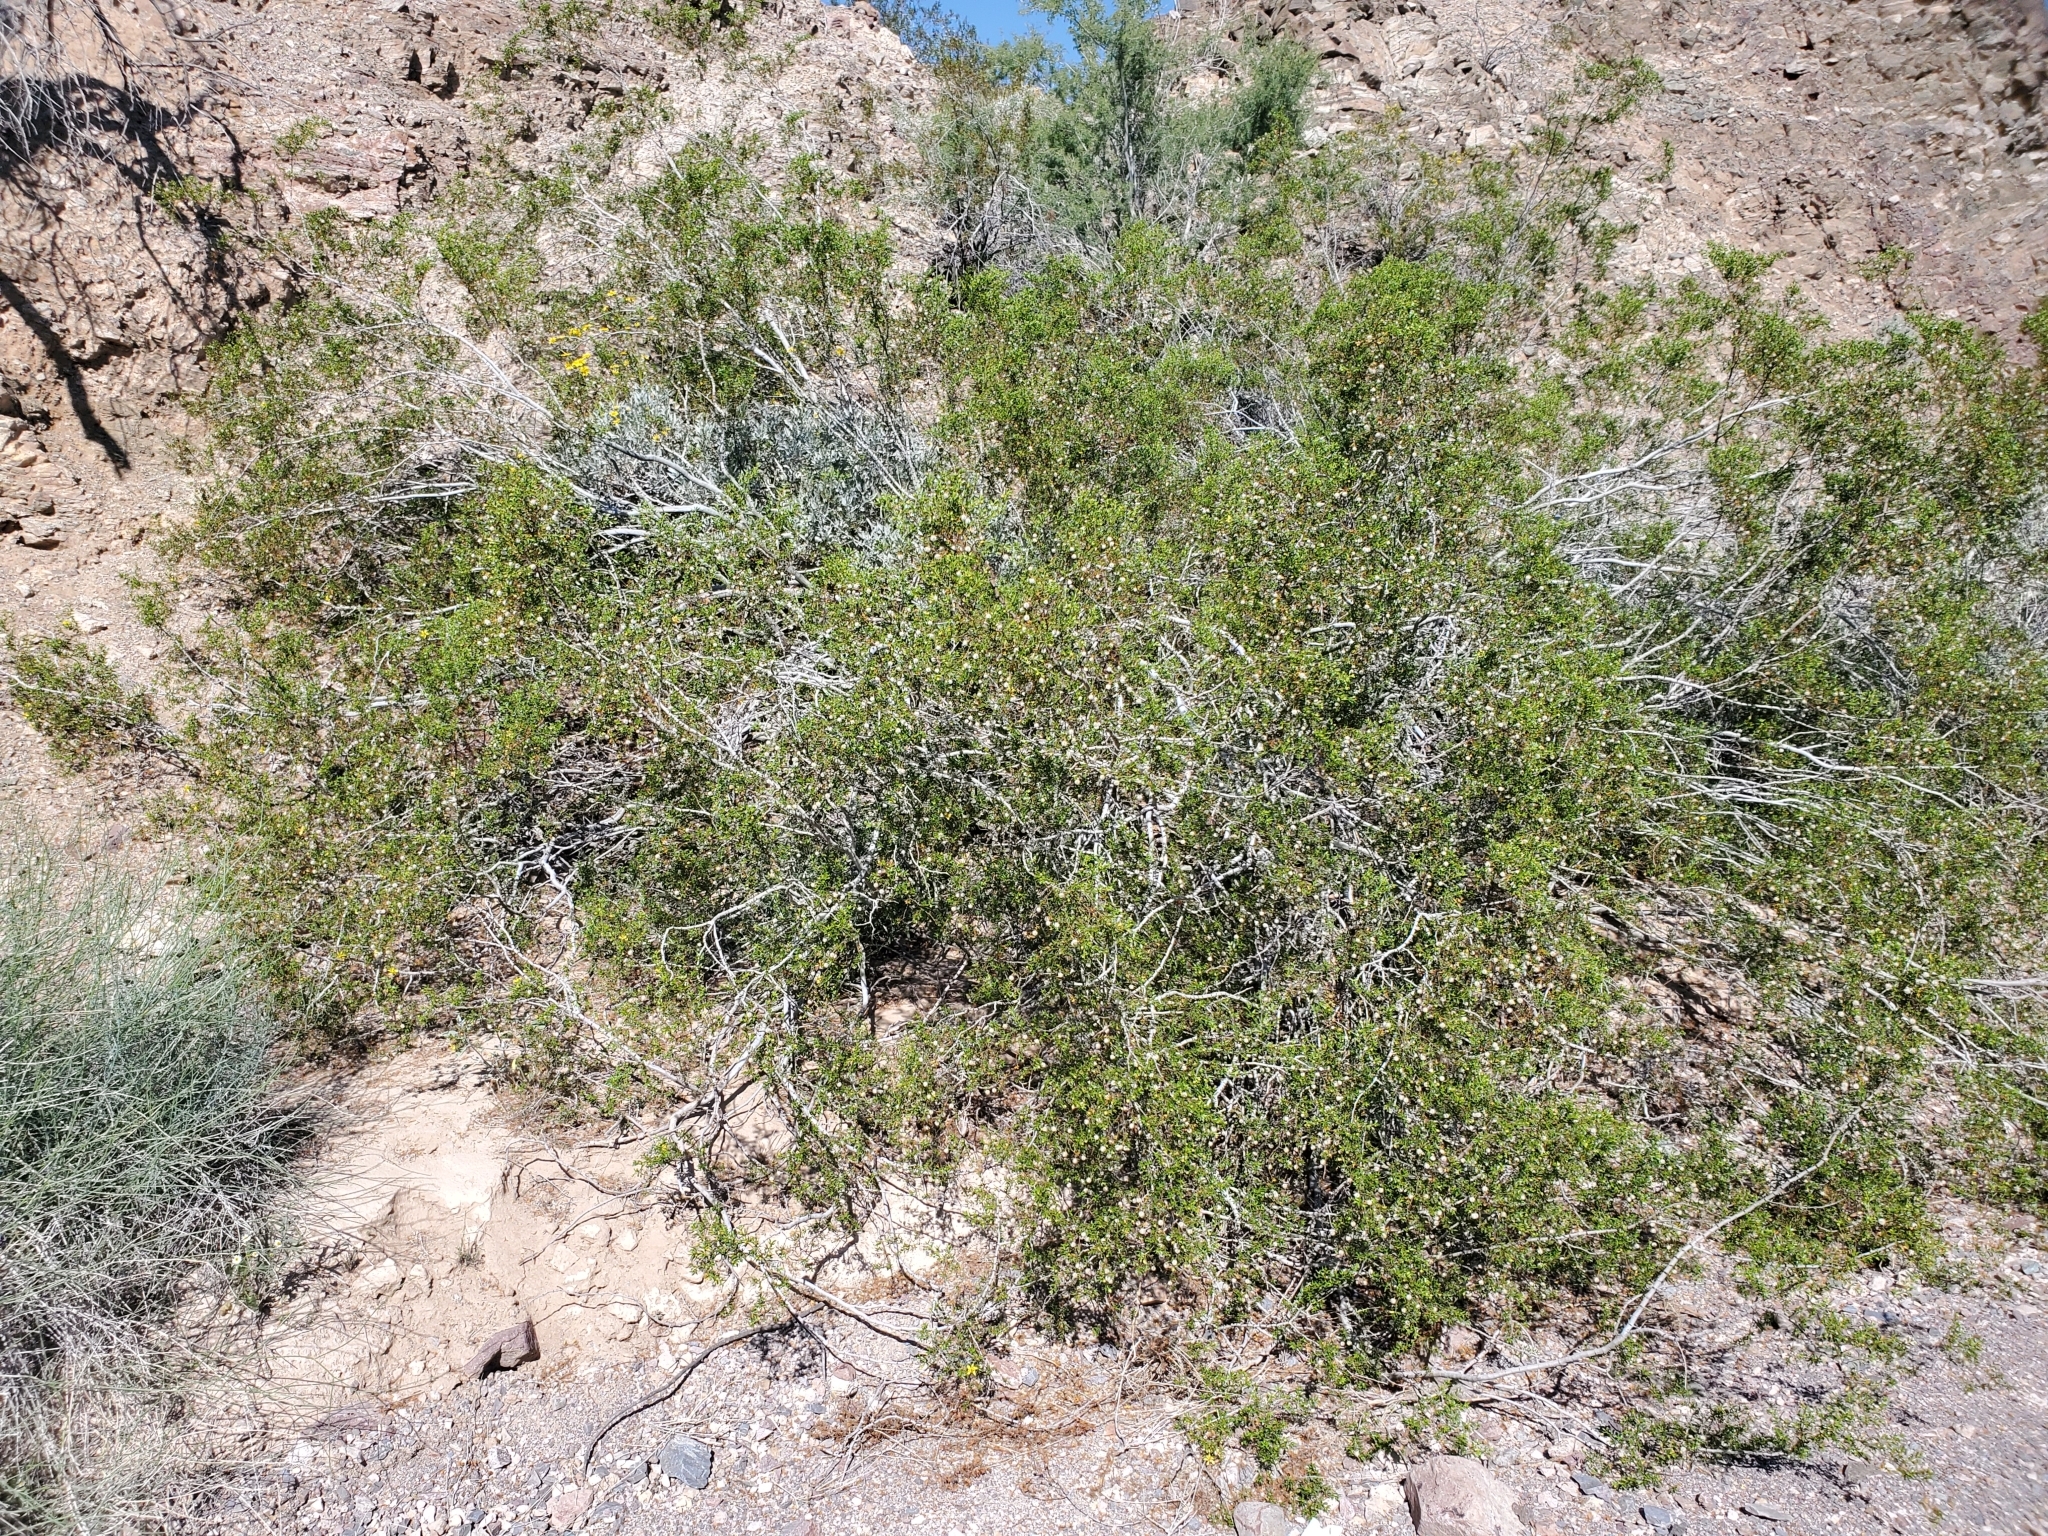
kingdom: Plantae
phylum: Tracheophyta
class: Magnoliopsida
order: Zygophyllales
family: Zygophyllaceae
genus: Larrea
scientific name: Larrea tridentata
